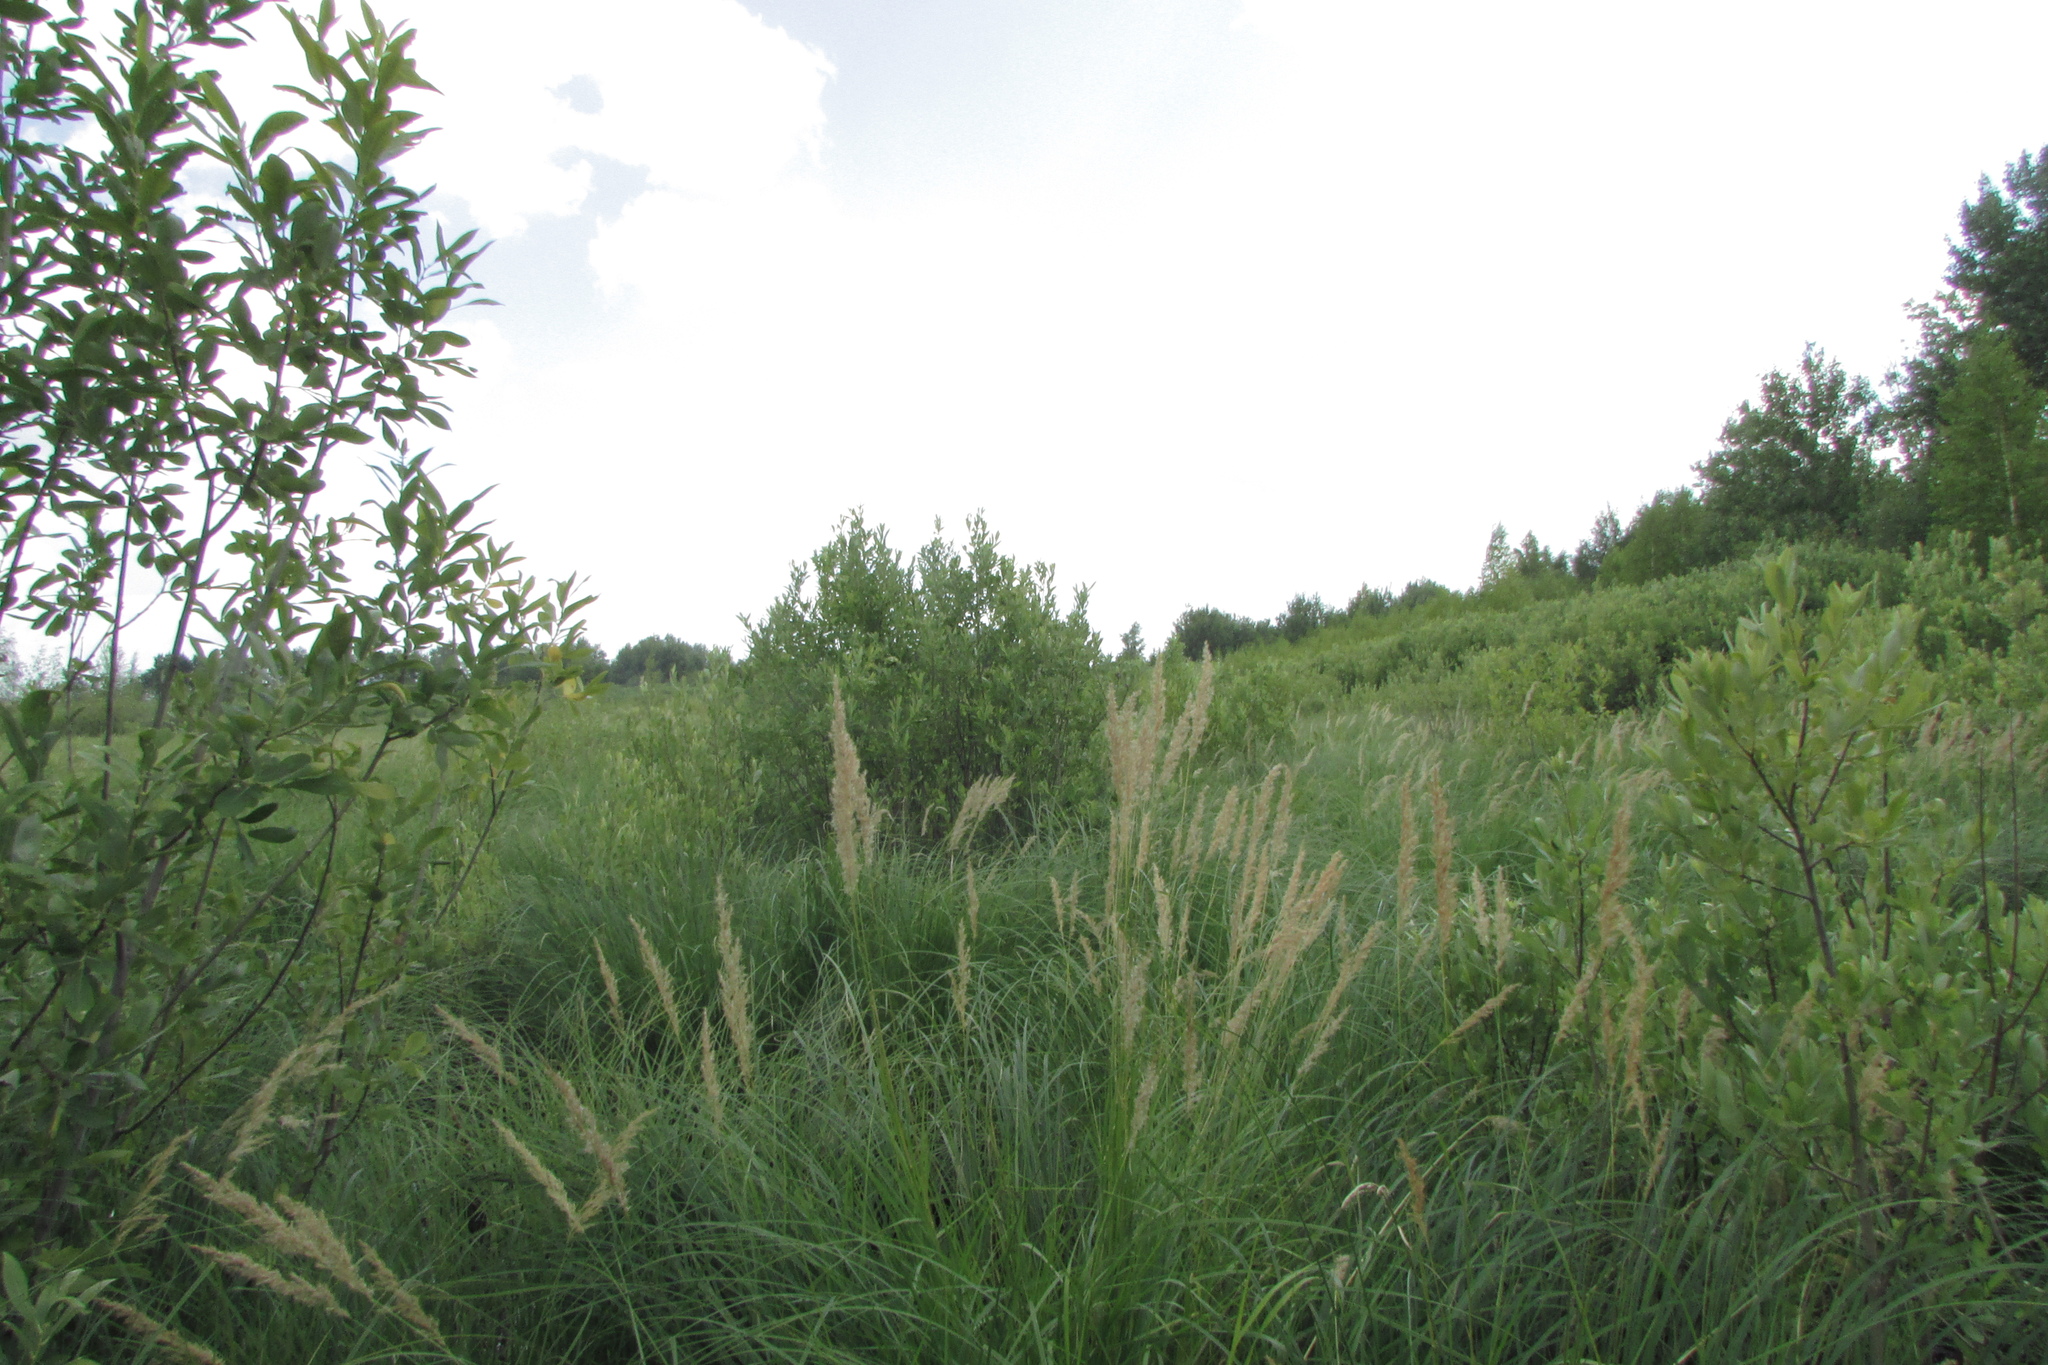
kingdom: Plantae
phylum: Tracheophyta
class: Liliopsida
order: Poales
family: Poaceae
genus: Calamagrostis
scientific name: Calamagrostis canescens
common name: Purple small-reed
